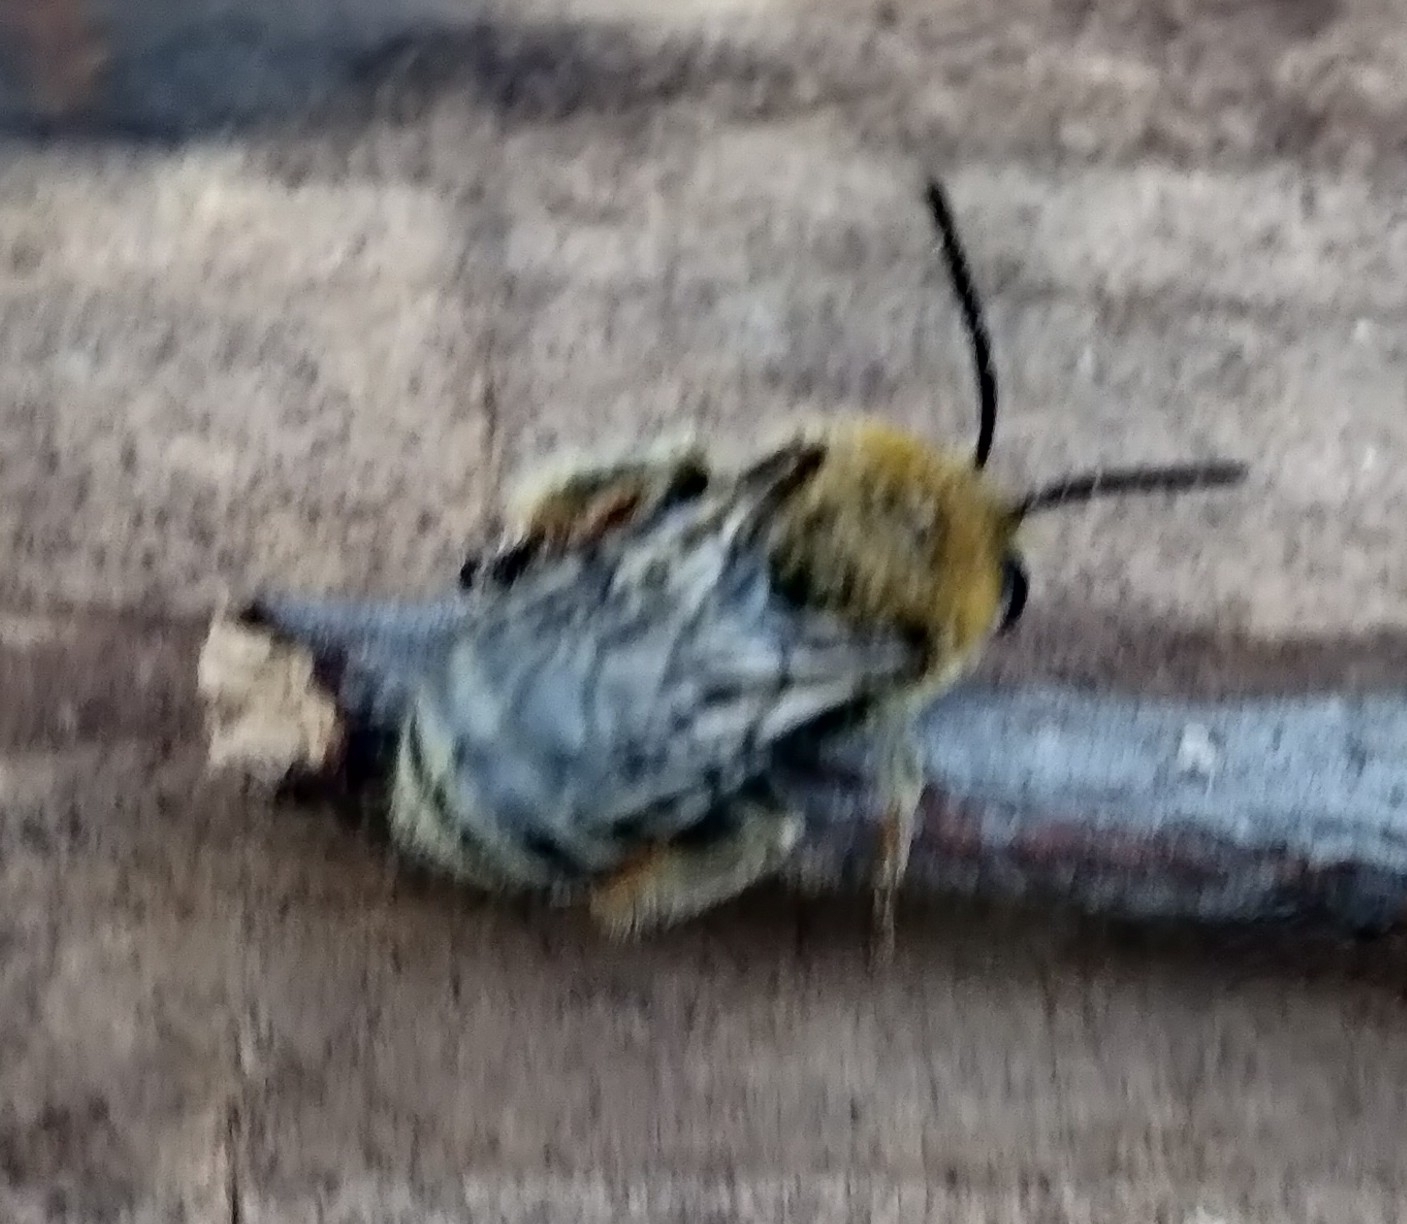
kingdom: Animalia
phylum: Arthropoda
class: Insecta
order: Hymenoptera
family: Apidae
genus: Peponapis
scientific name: Peponapis pruinosa
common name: Pruinose squash bee
